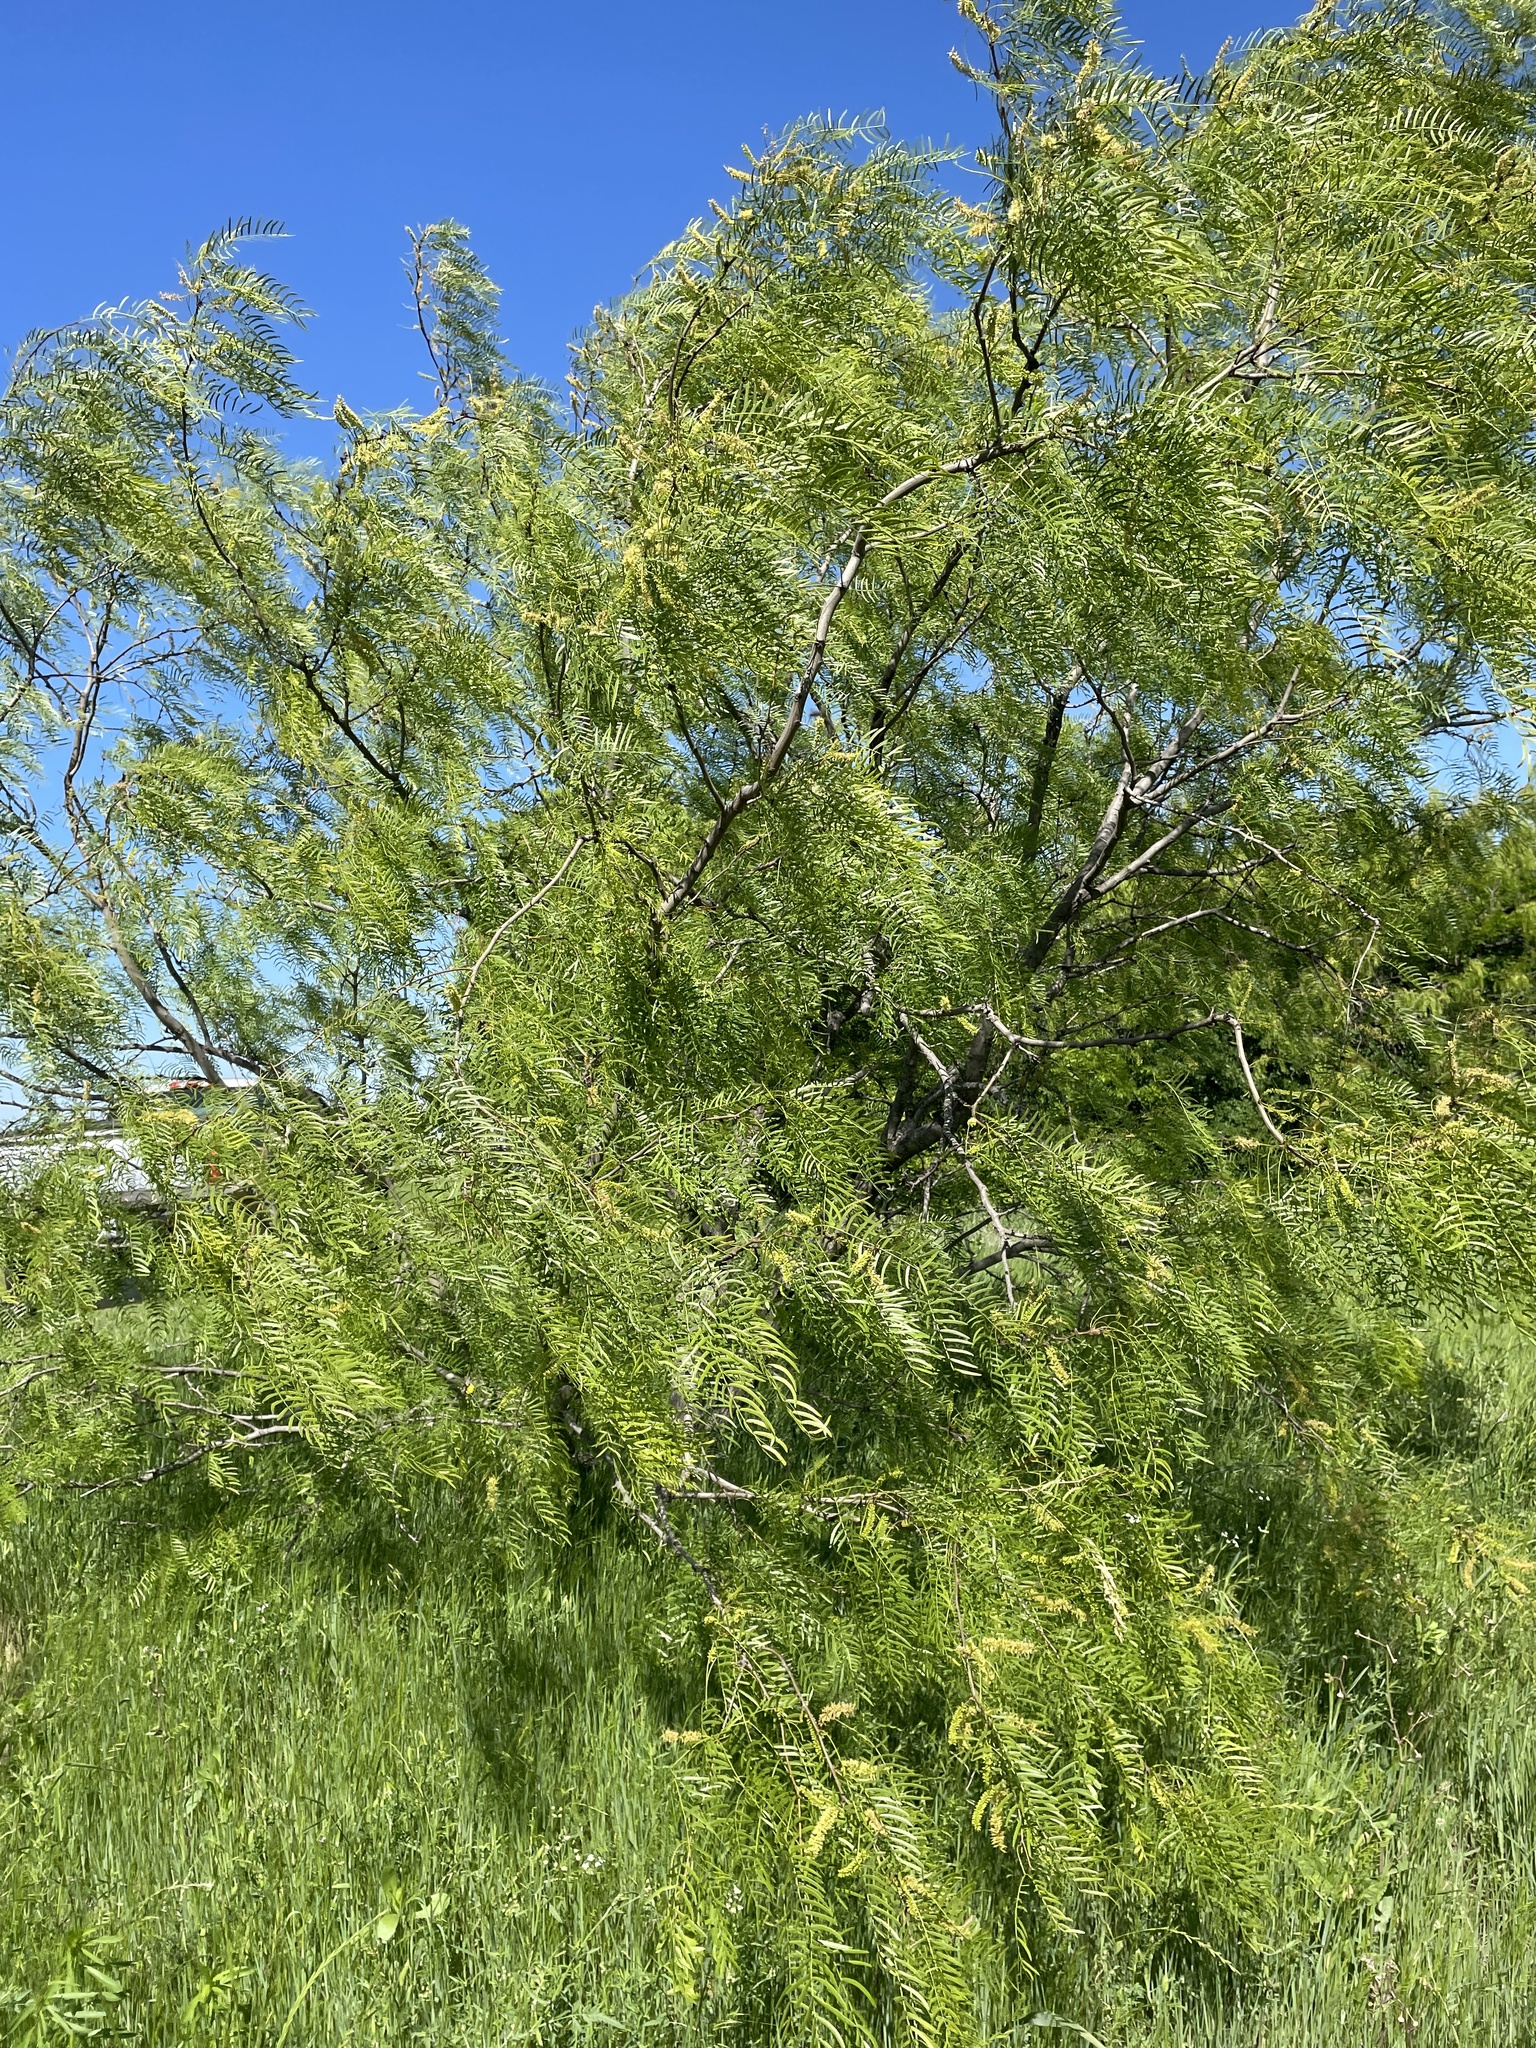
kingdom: Plantae
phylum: Tracheophyta
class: Magnoliopsida
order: Fabales
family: Fabaceae
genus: Prosopis
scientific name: Prosopis glandulosa
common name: Honey mesquite
